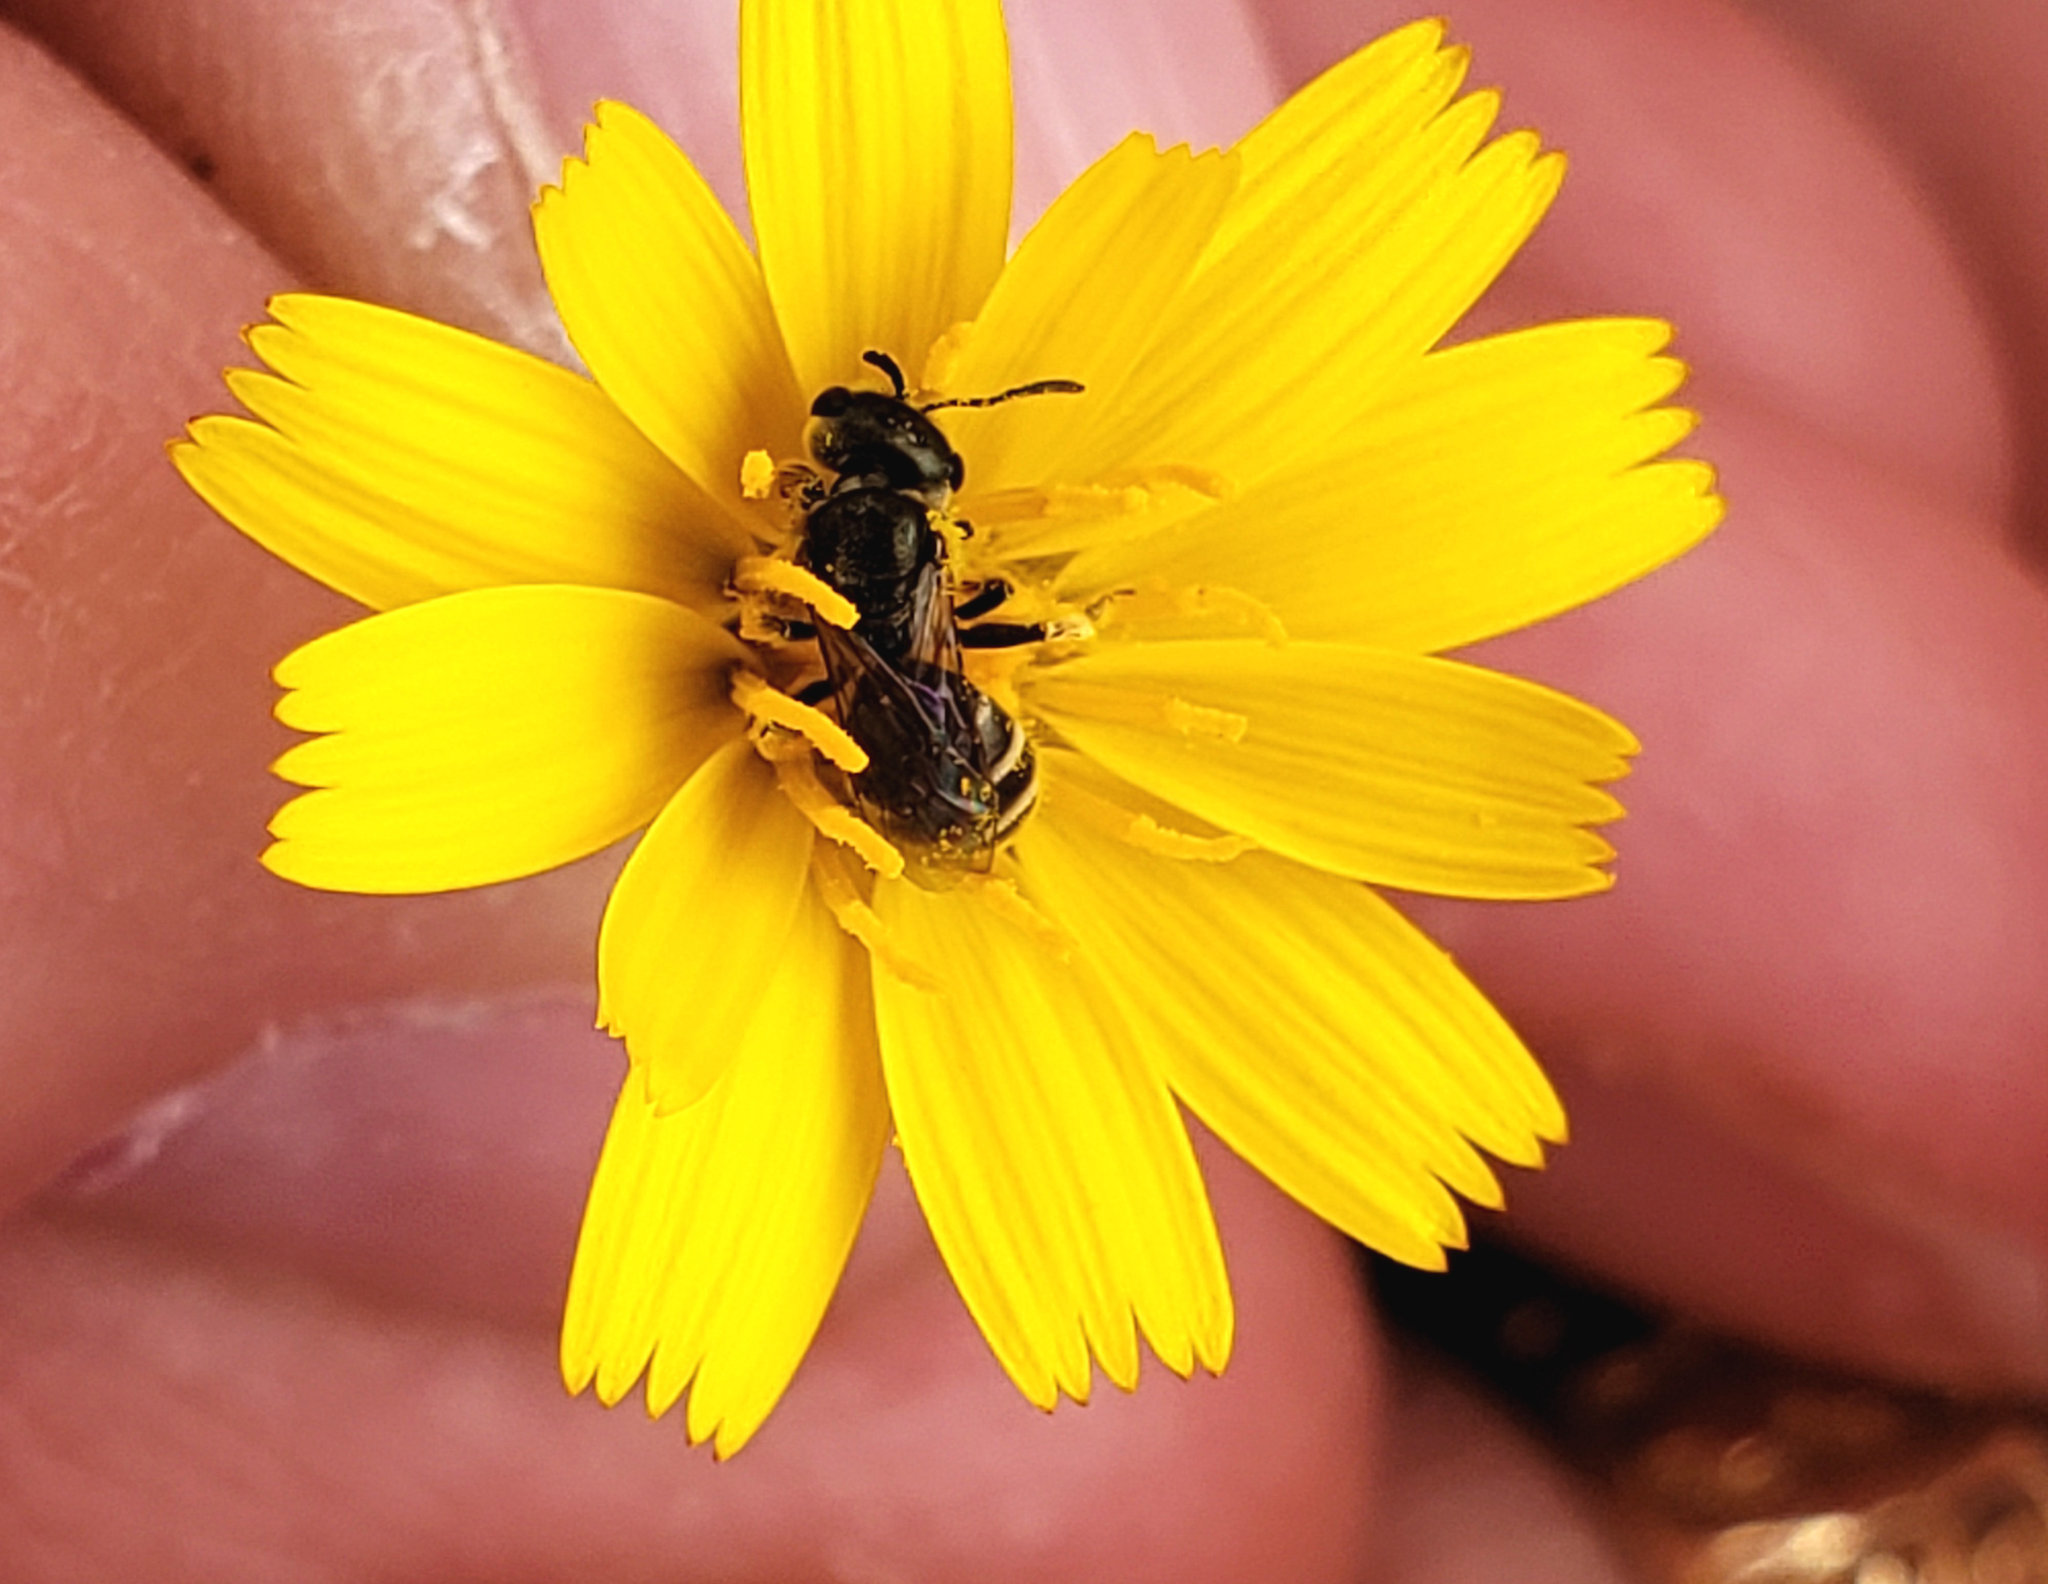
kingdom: Animalia
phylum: Arthropoda
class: Insecta
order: Hymenoptera
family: Halictidae
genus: Halictus
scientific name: Halictus tripartitus
